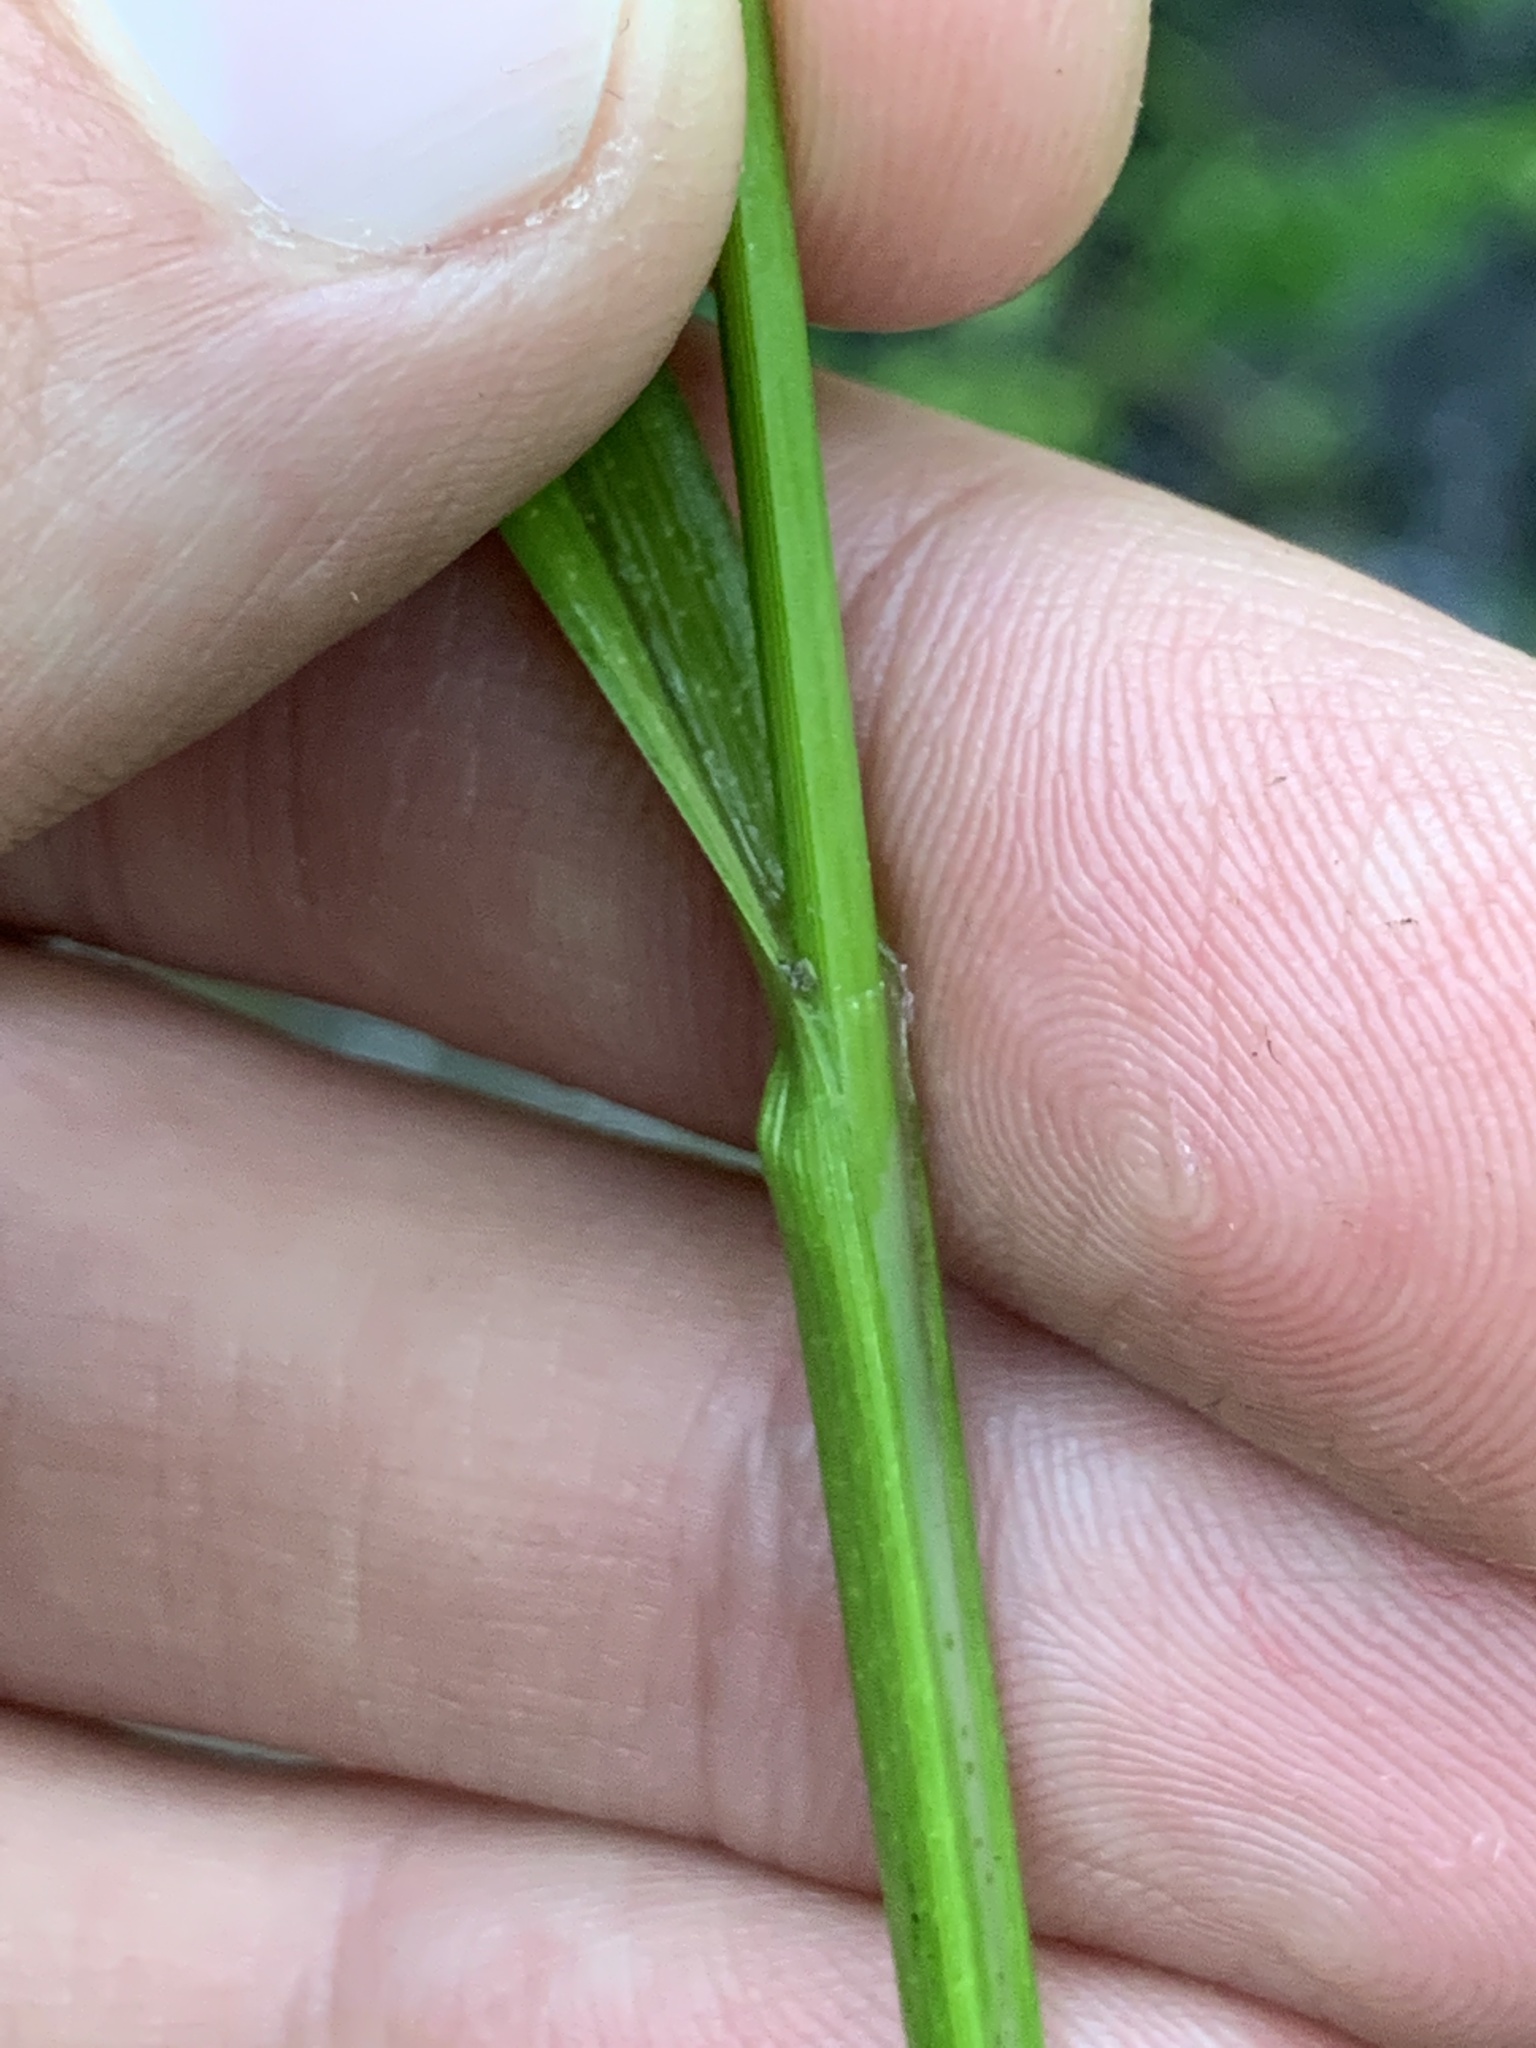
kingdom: Plantae
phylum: Tracheophyta
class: Liliopsida
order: Poales
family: Cyperaceae
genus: Carex
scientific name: Carex intumescens
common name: Greater bladder sedge
